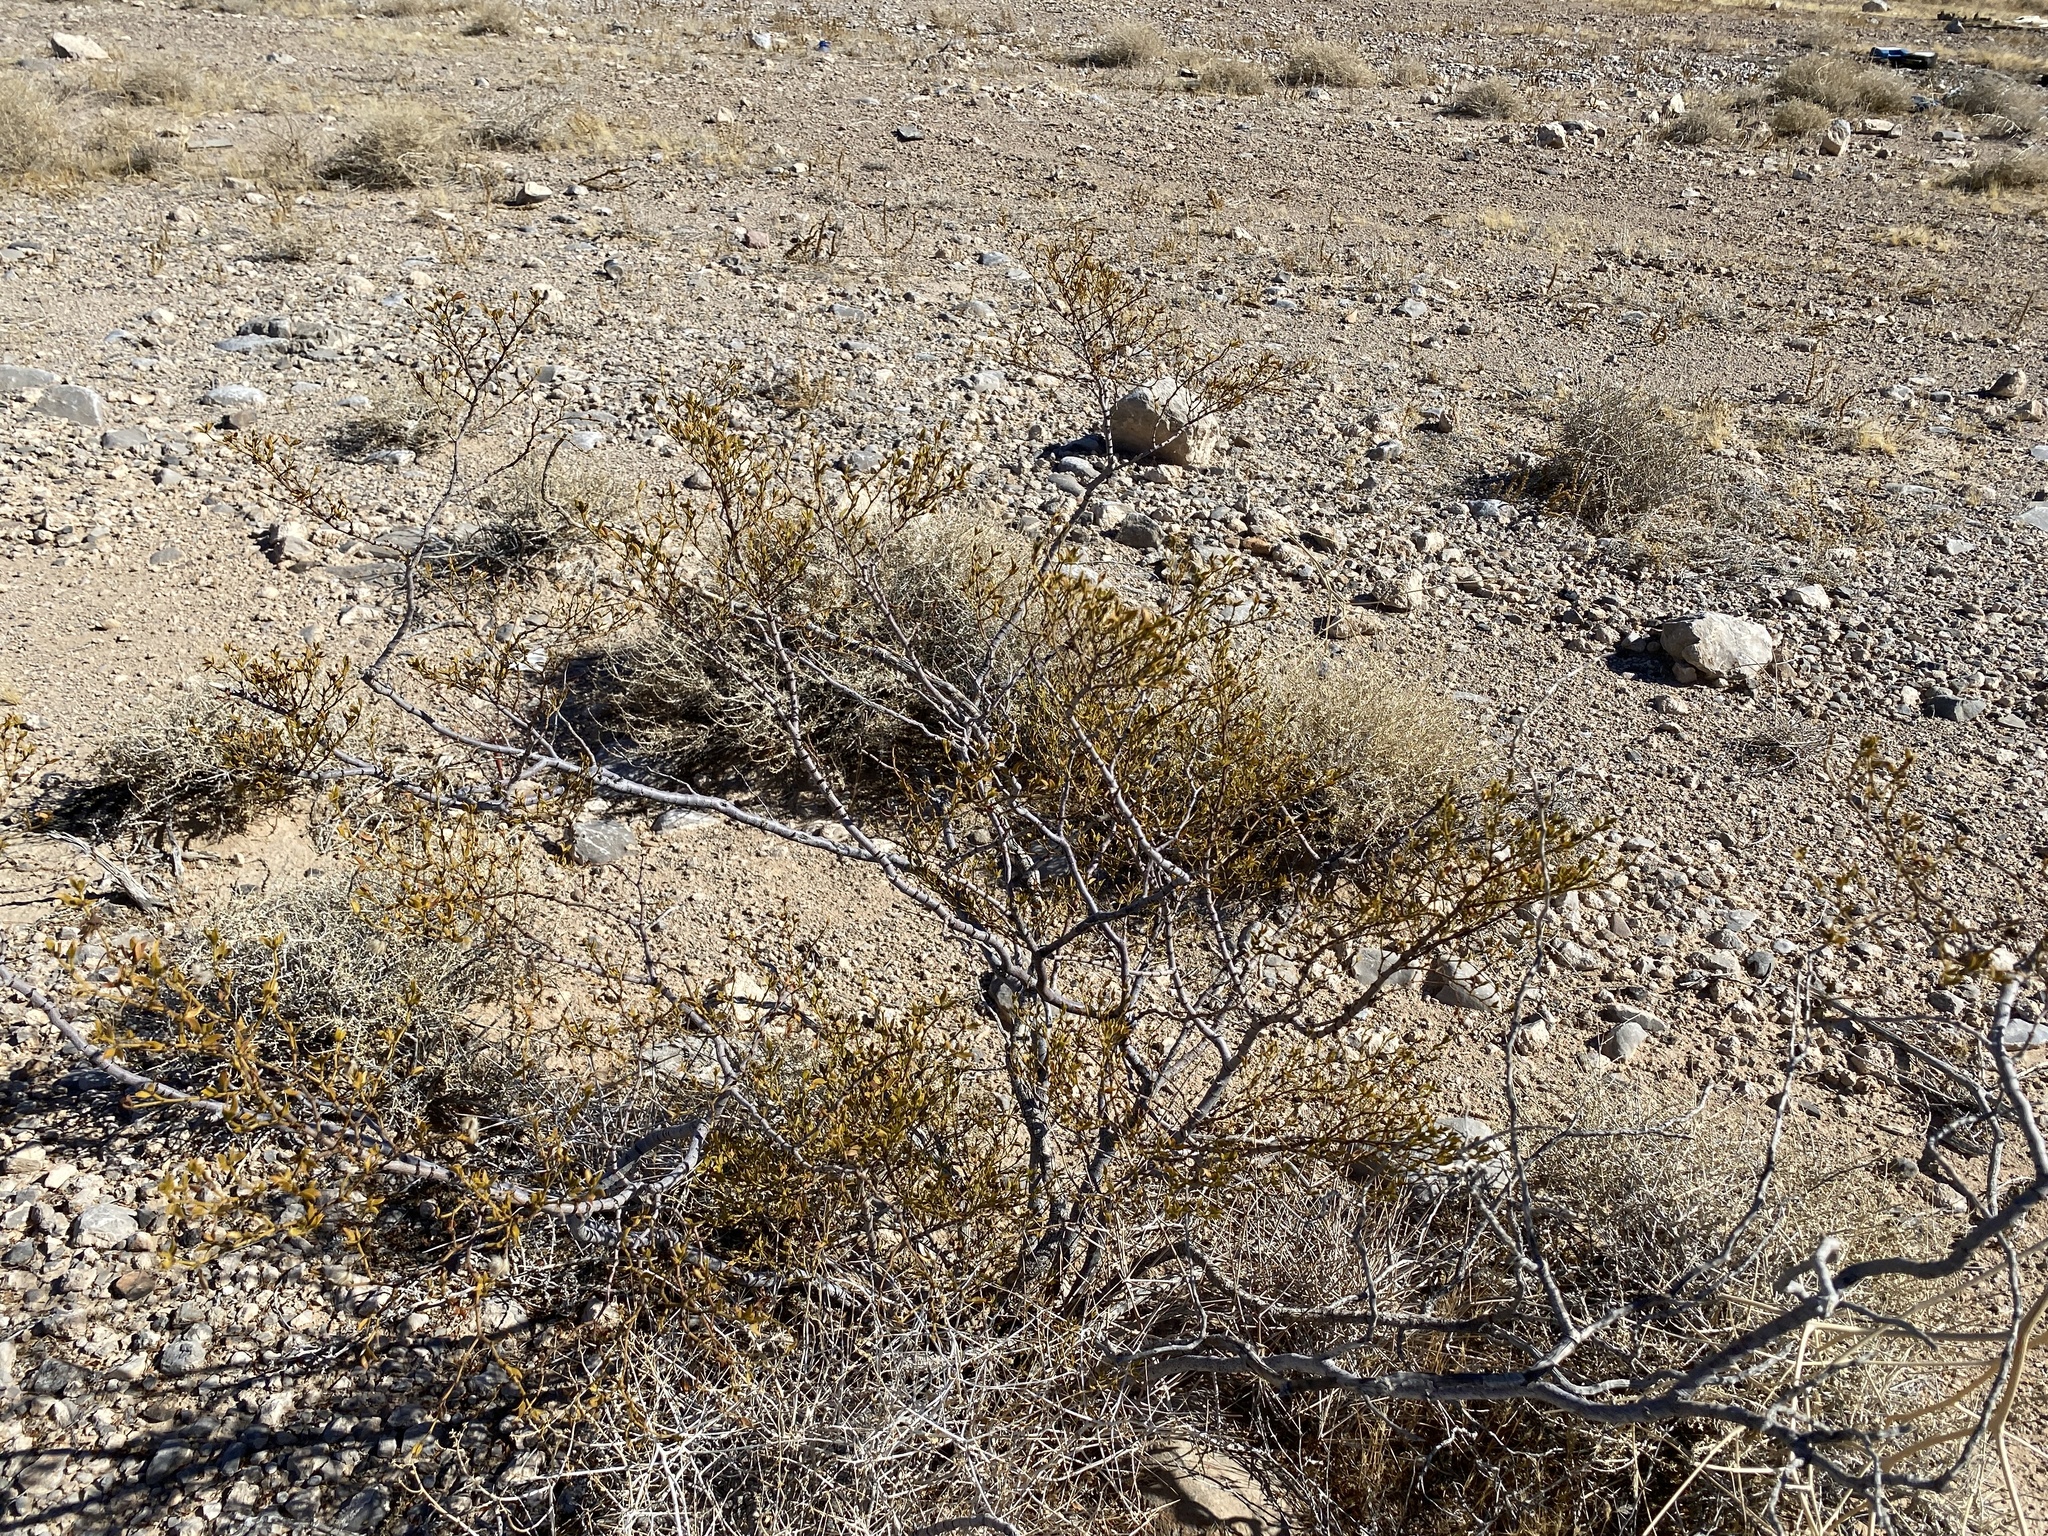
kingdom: Plantae
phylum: Tracheophyta
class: Magnoliopsida
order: Zygophyllales
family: Zygophyllaceae
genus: Larrea
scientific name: Larrea tridentata
